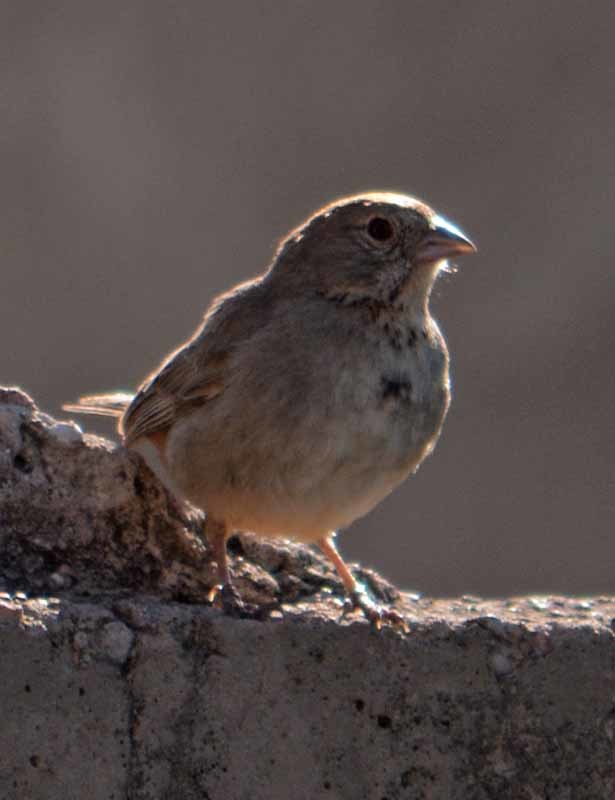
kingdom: Animalia
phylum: Chordata
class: Aves
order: Passeriformes
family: Passerellidae
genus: Melozone
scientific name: Melozone fusca
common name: Canyon towhee
